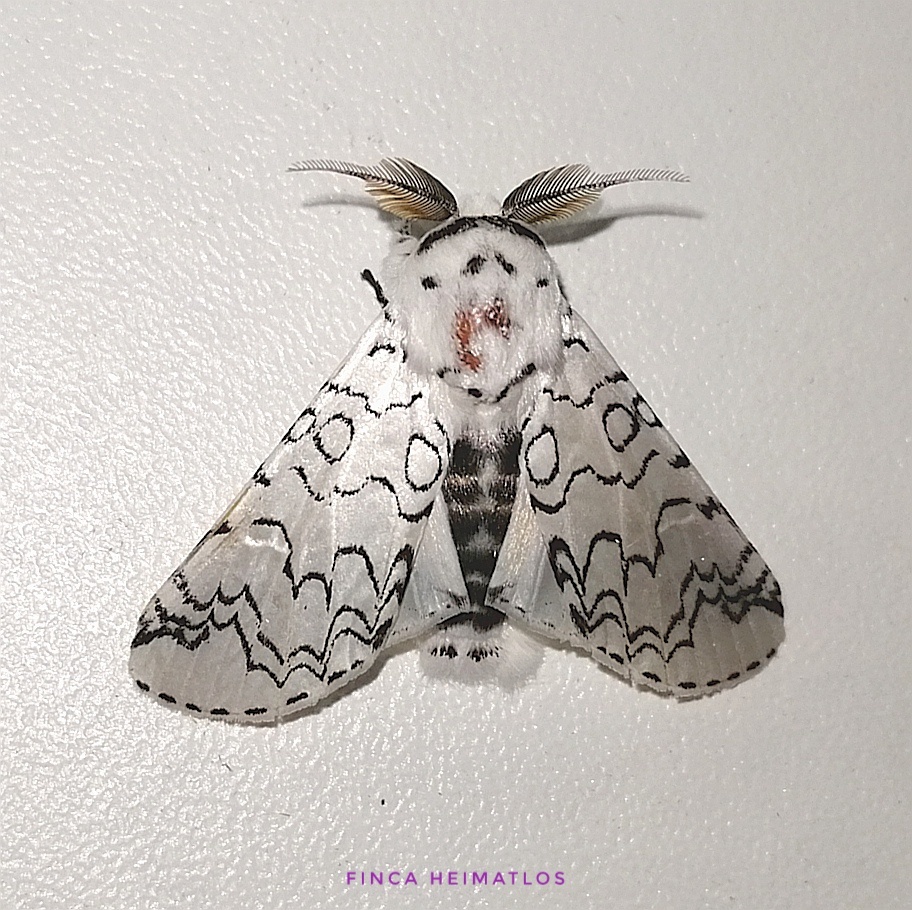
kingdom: Animalia
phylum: Arthropoda
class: Insecta
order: Lepidoptera
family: Notodontidae
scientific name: Notodontidae
